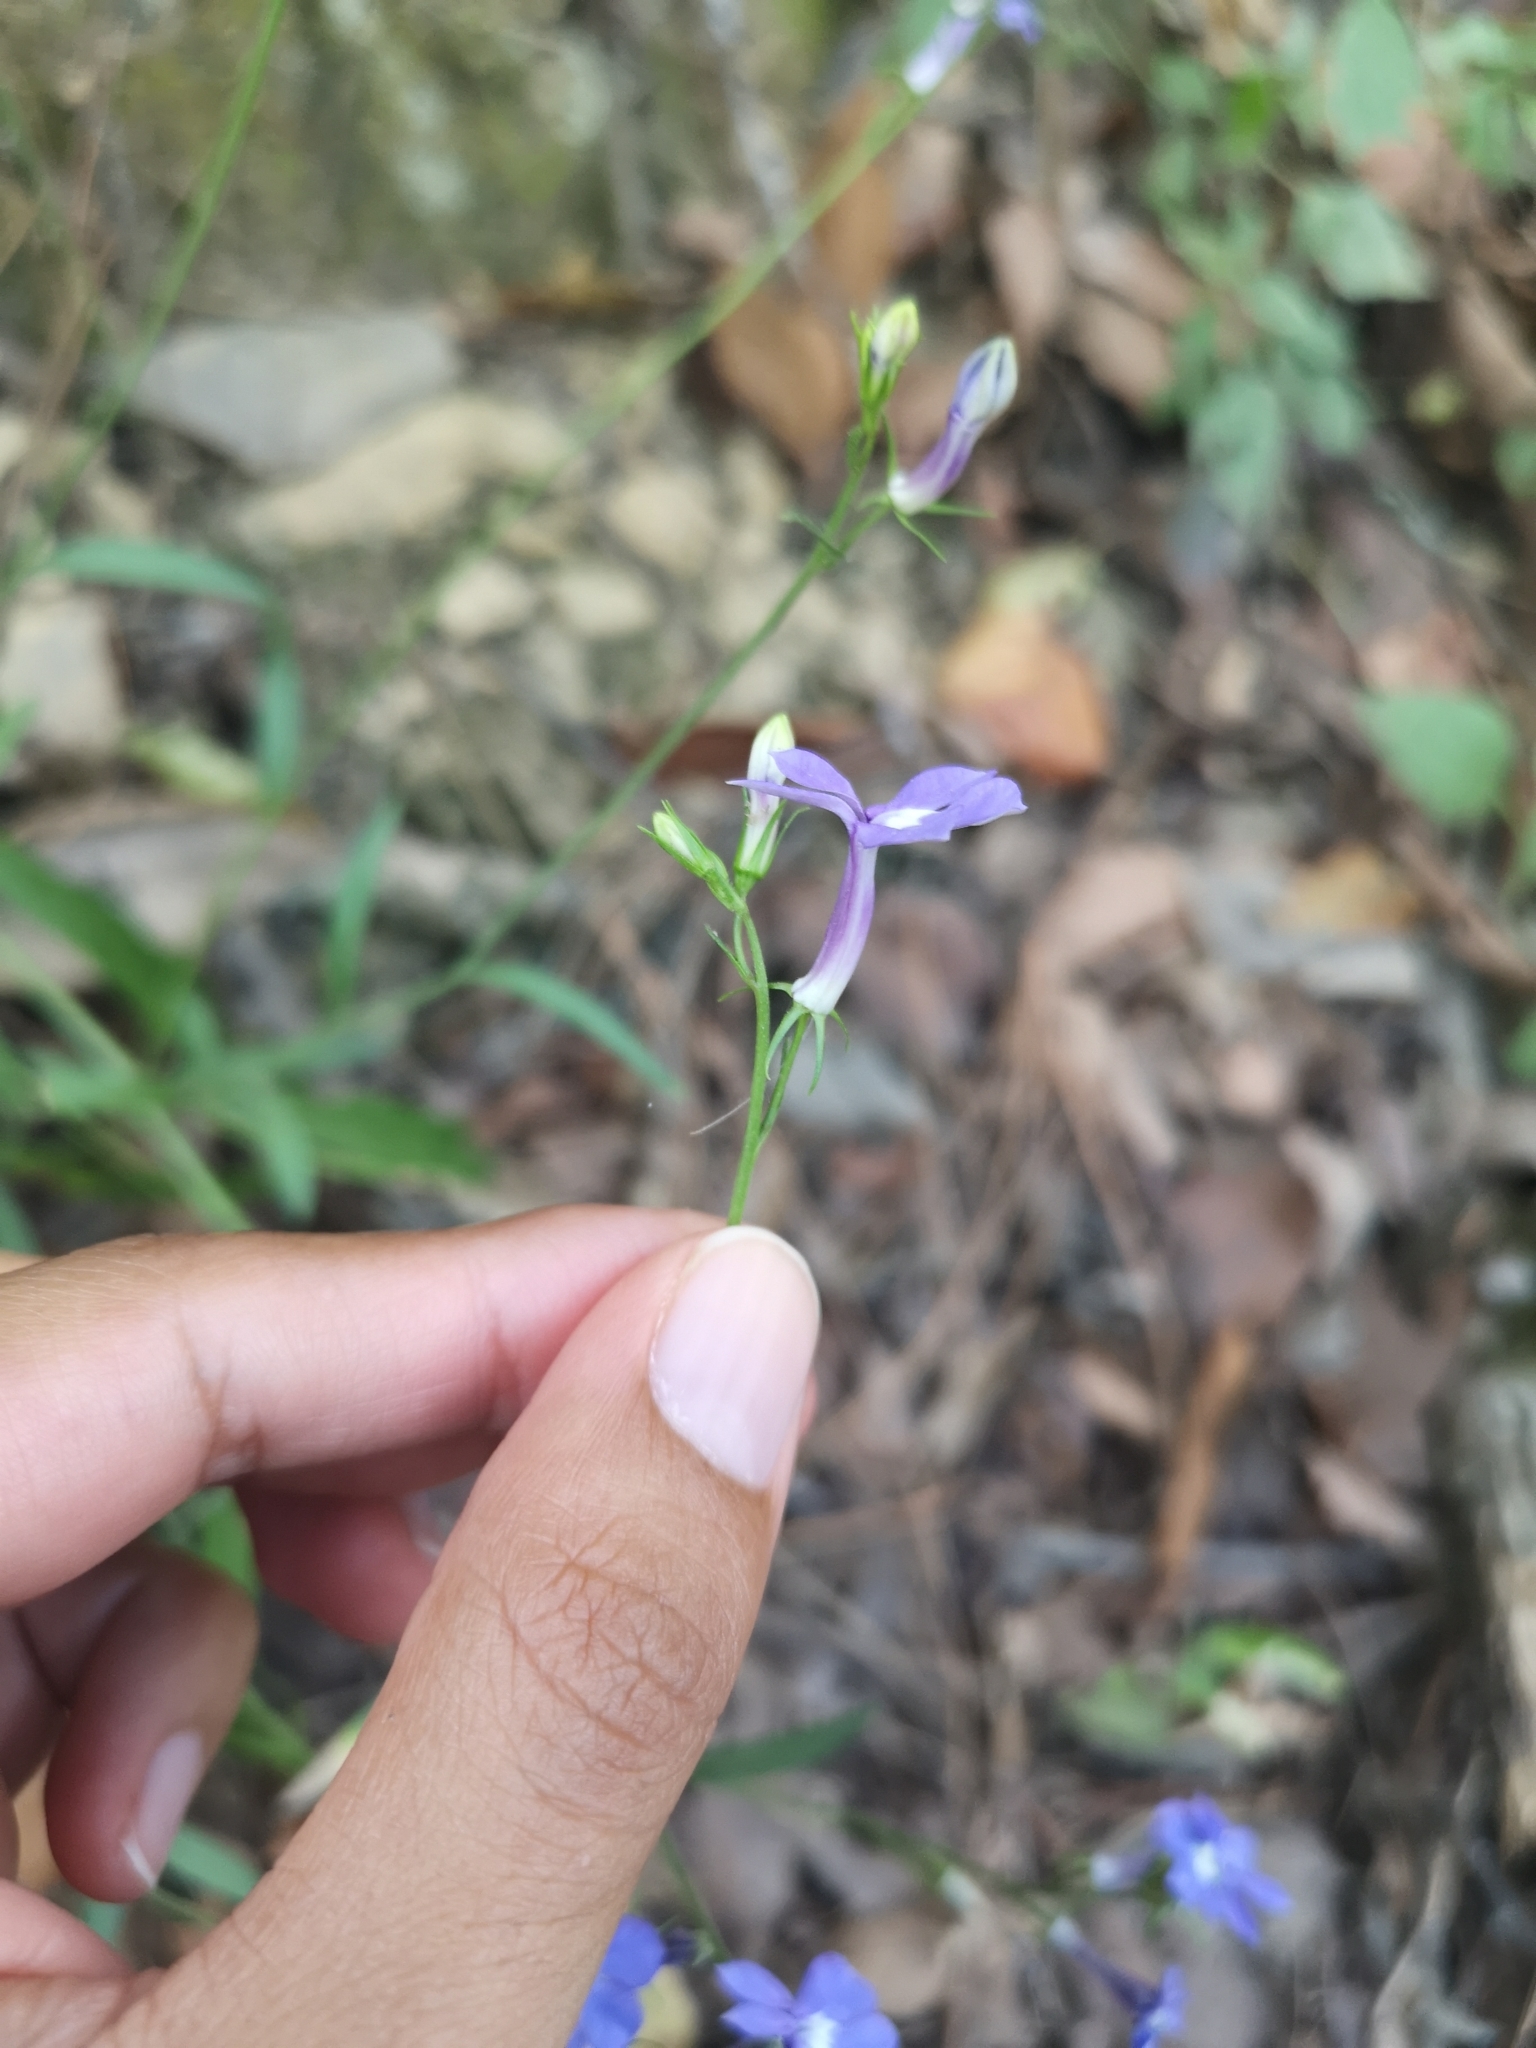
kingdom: Plantae
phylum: Tracheophyta
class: Magnoliopsida
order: Asterales
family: Campanulaceae
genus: Lobelia
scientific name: Lobelia sublibera
